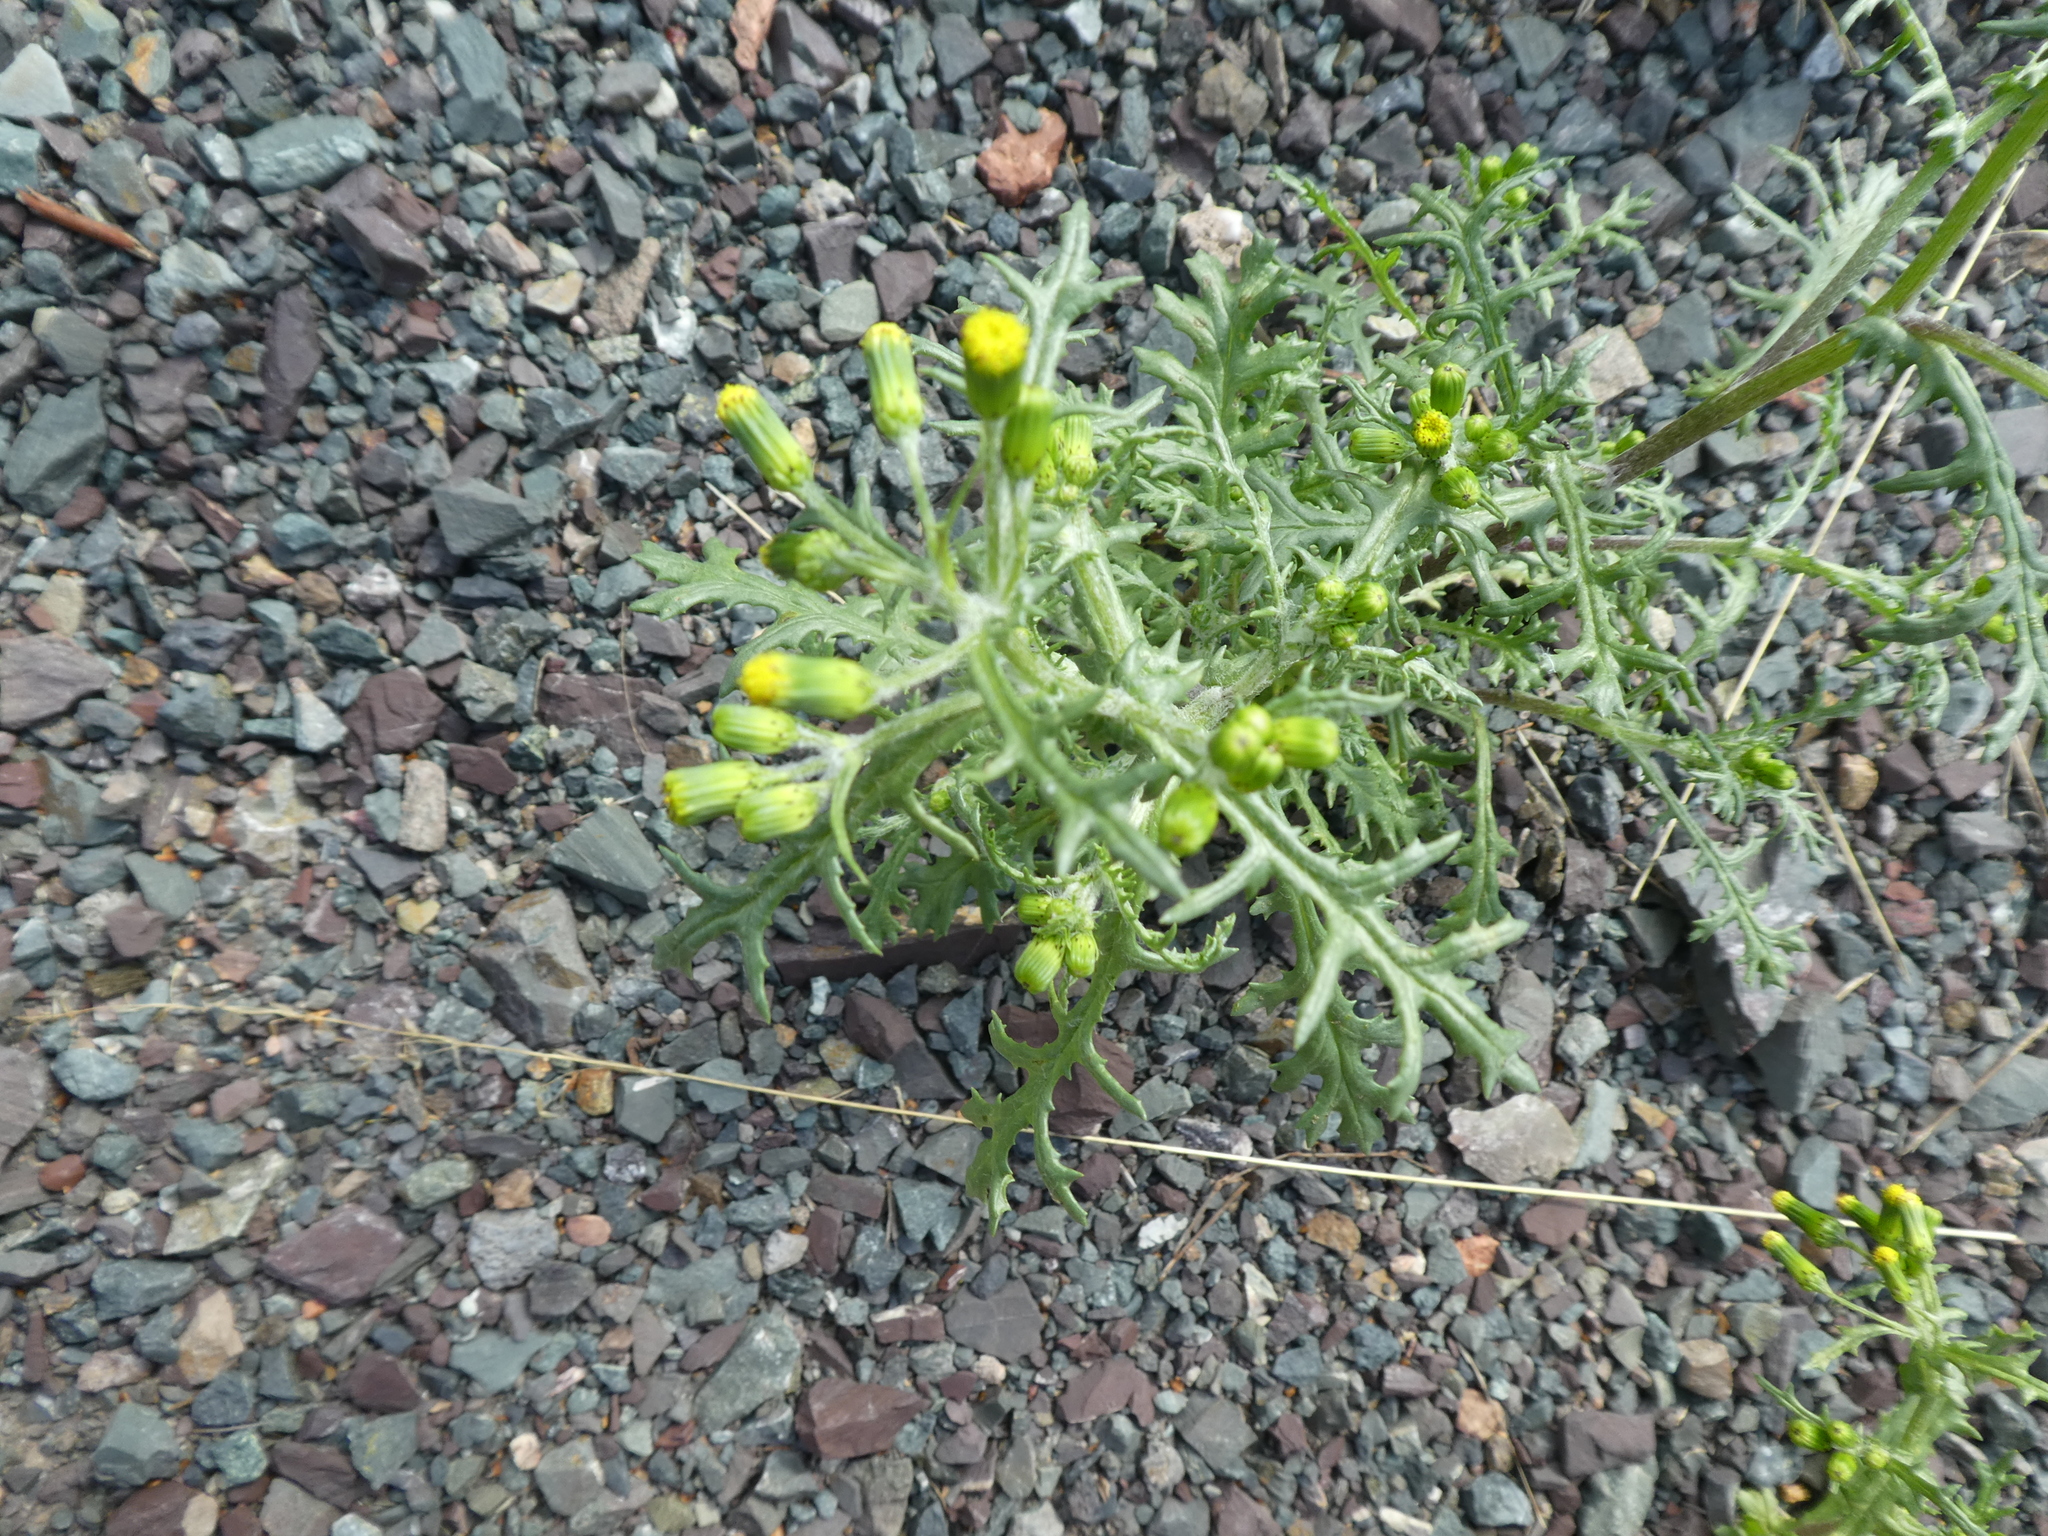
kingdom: Plantae
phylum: Tracheophyta
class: Magnoliopsida
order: Asterales
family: Asteraceae
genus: Senecio
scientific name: Senecio vulgaris
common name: Old-man-in-the-spring
